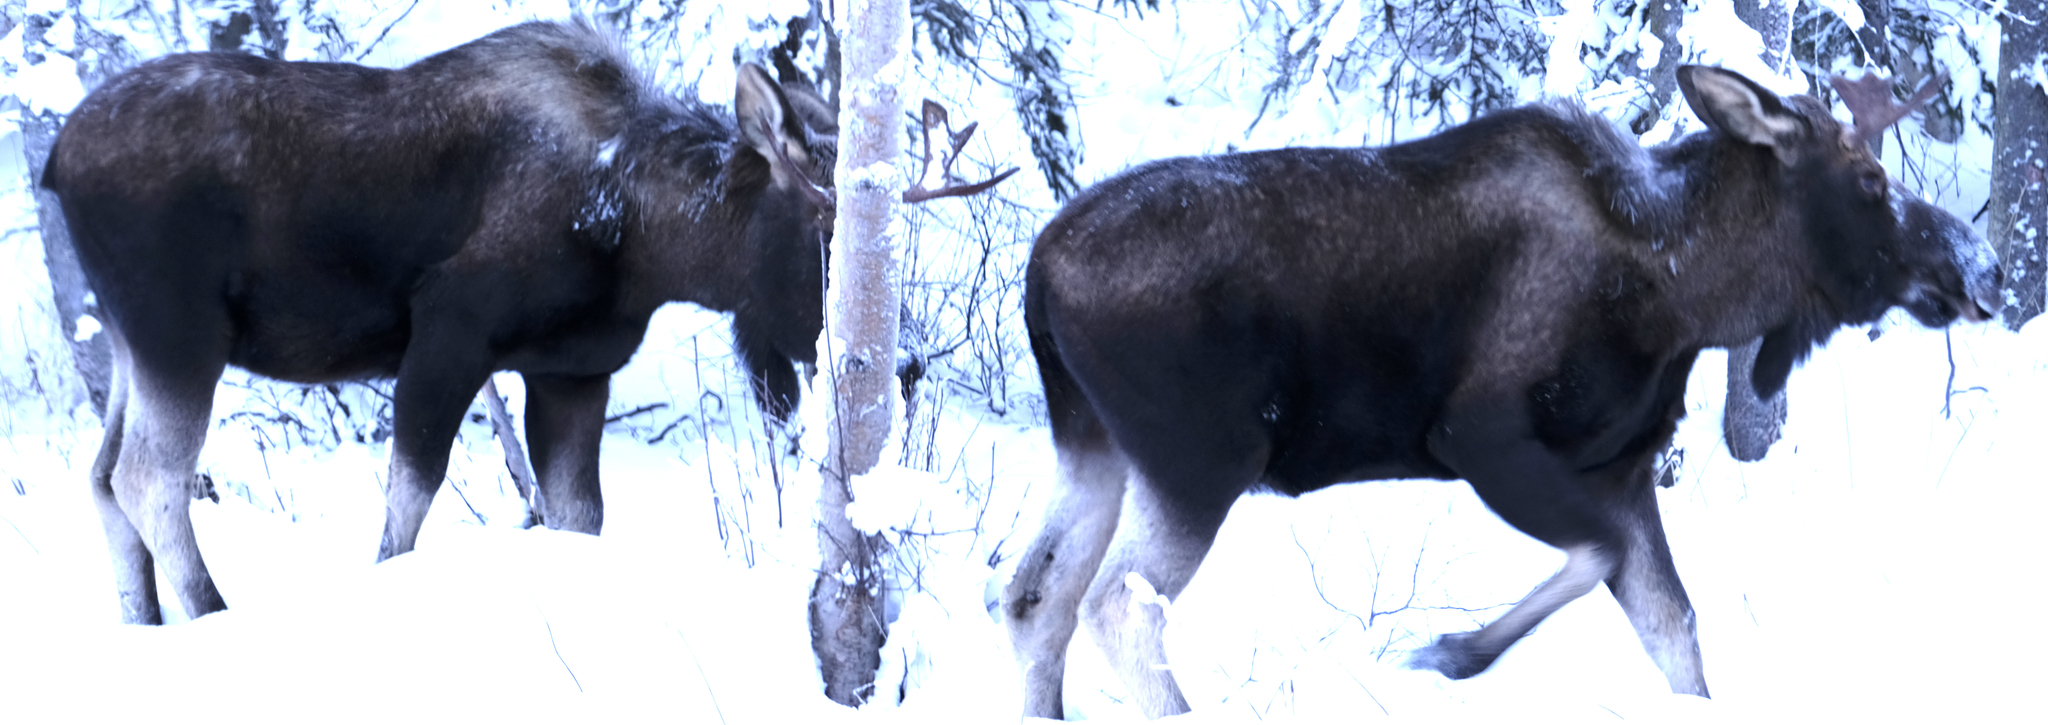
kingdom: Animalia
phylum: Chordata
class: Mammalia
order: Artiodactyla
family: Cervidae
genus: Alces
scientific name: Alces alces
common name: Moose
